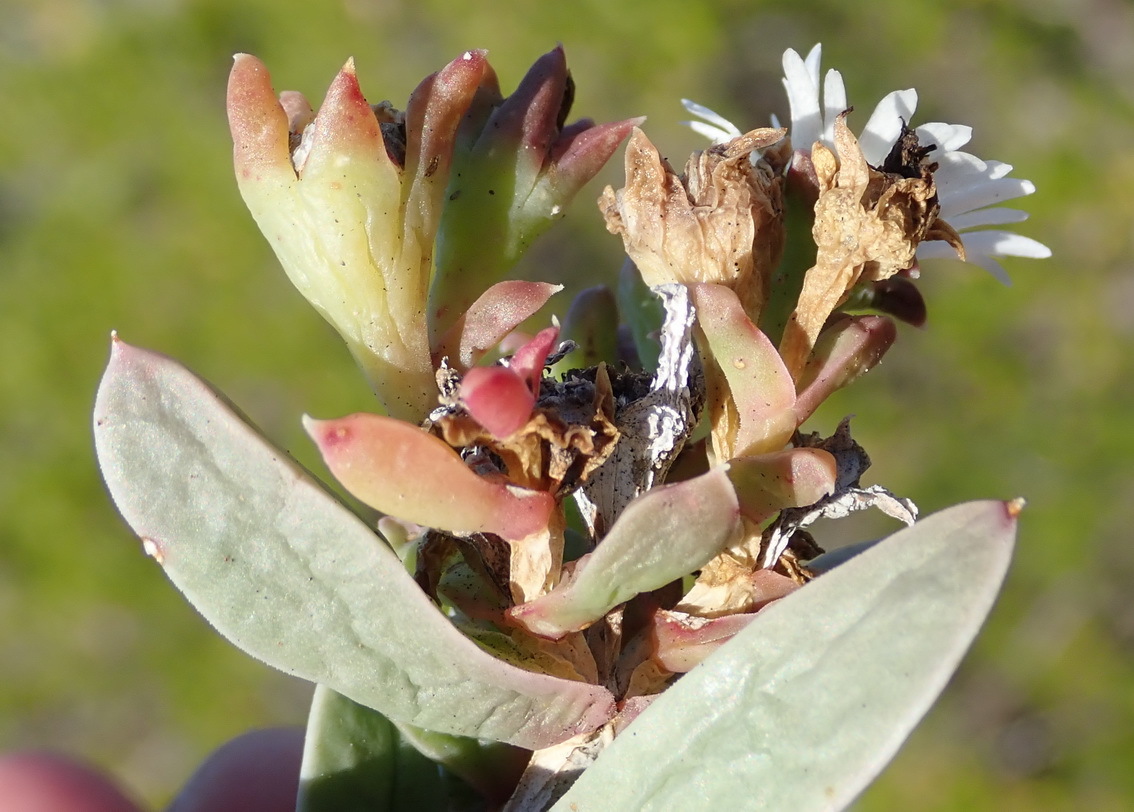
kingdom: Plantae
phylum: Tracheophyta
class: Magnoliopsida
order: Caryophyllales
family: Aizoaceae
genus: Delosperma
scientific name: Delosperma litorale
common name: Seaside delosperma
